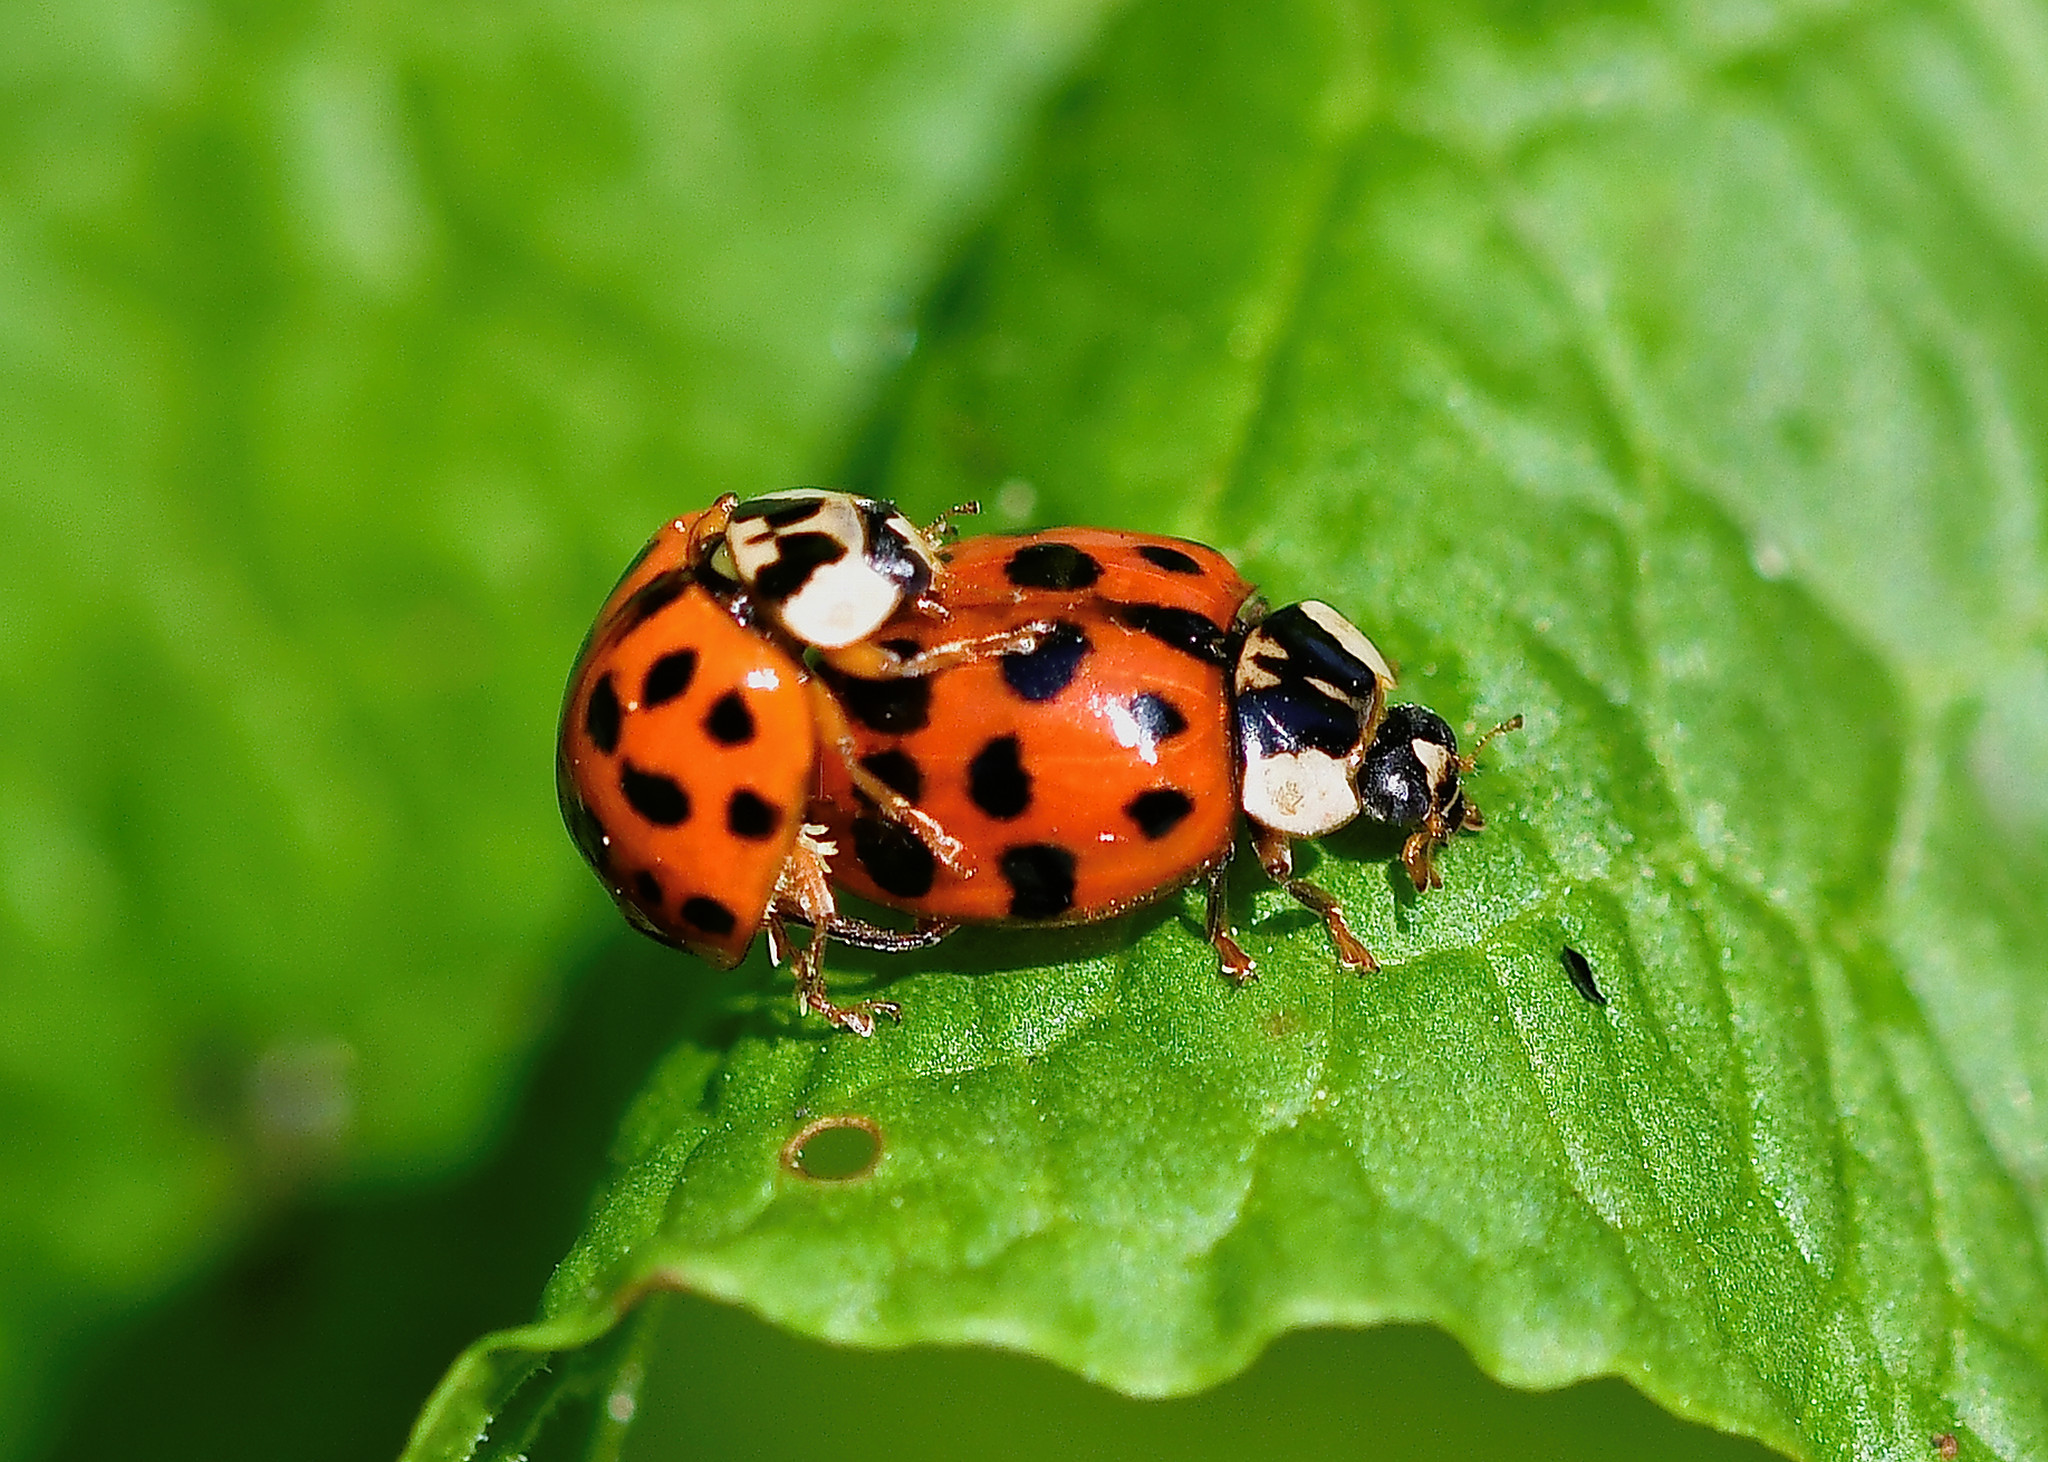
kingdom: Animalia
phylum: Arthropoda
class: Insecta
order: Coleoptera
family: Coccinellidae
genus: Harmonia
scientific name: Harmonia axyridis
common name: Harlequin ladybird
